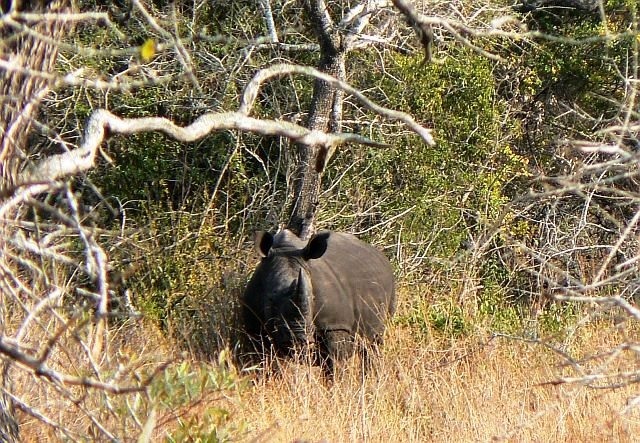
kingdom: Animalia
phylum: Chordata
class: Mammalia
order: Perissodactyla
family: Rhinocerotidae
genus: Ceratotherium
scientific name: Ceratotherium simum
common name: White rhinoceros
